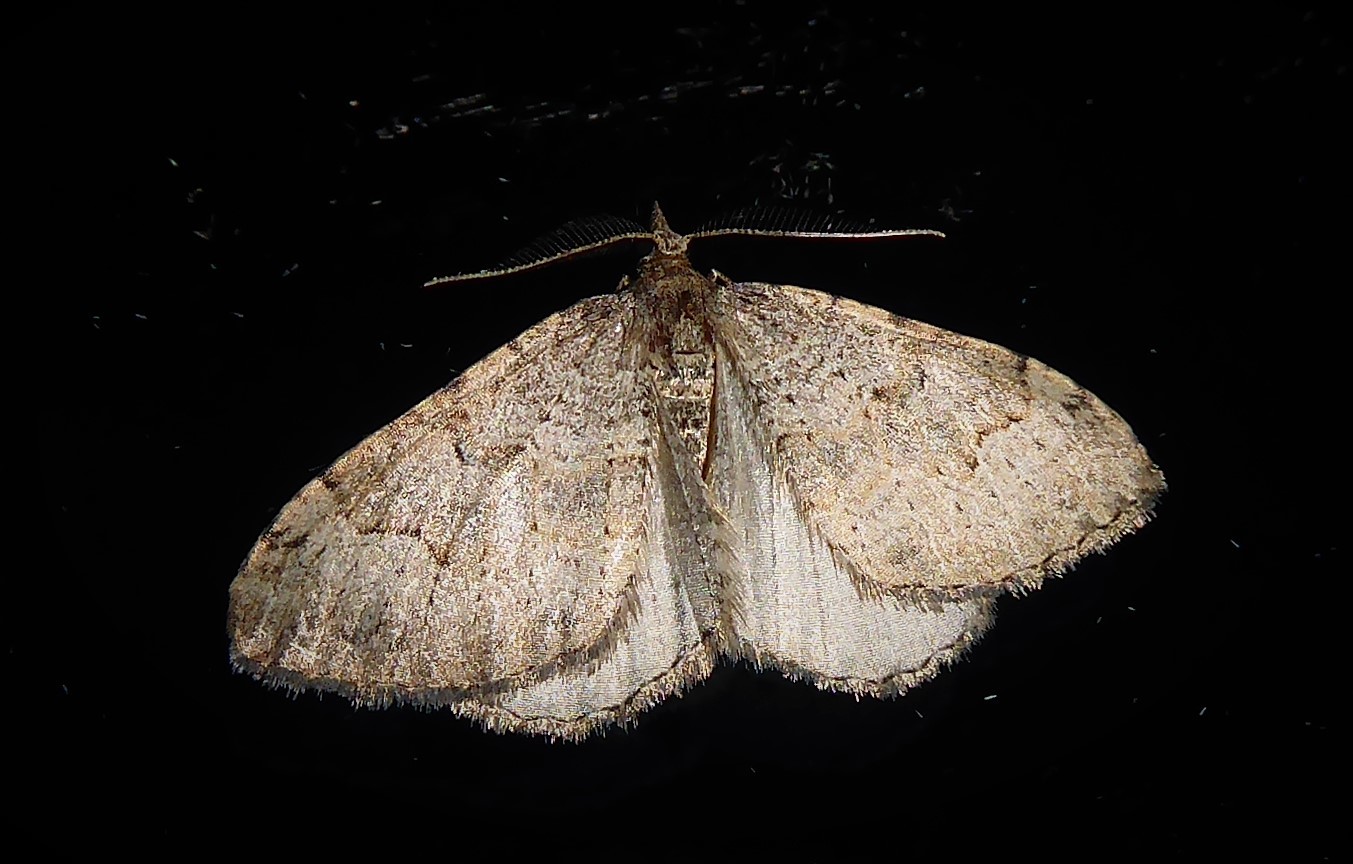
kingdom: Animalia
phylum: Arthropoda
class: Insecta
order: Lepidoptera
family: Geometridae
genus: Epyaxa
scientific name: Epyaxa rosearia
